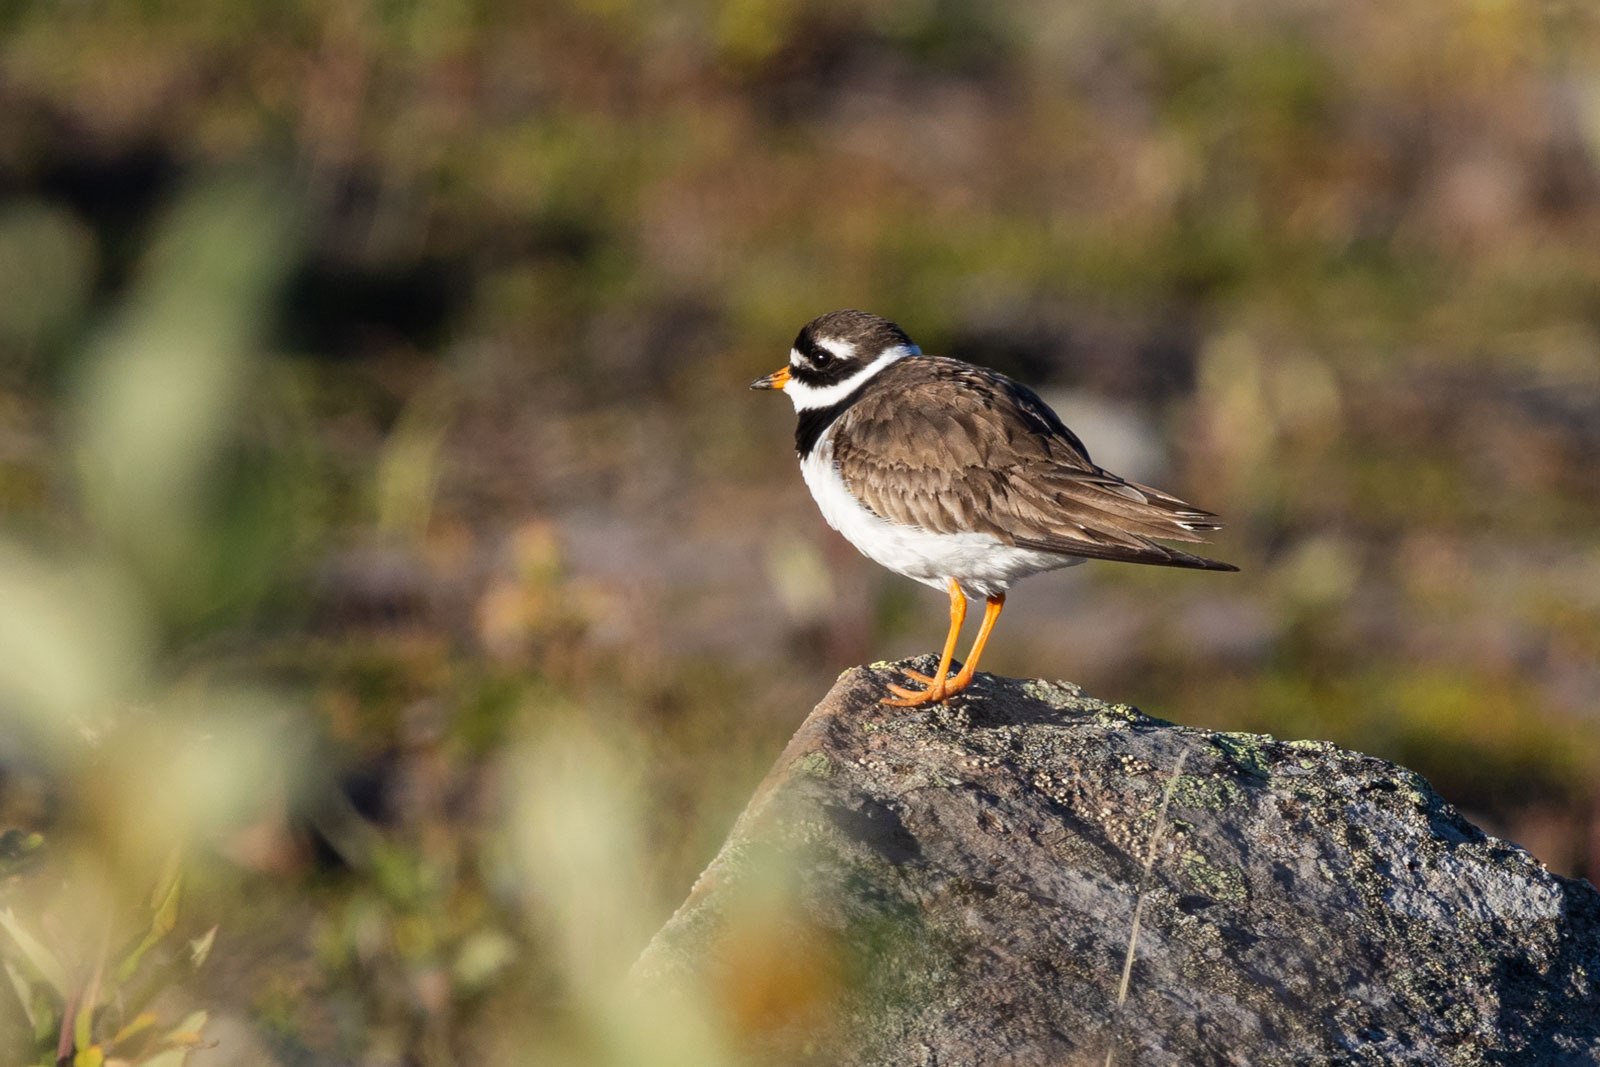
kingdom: Animalia
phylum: Chordata
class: Aves
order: Charadriiformes
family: Charadriidae
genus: Charadrius
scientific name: Charadrius hiaticula
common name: Common ringed plover
